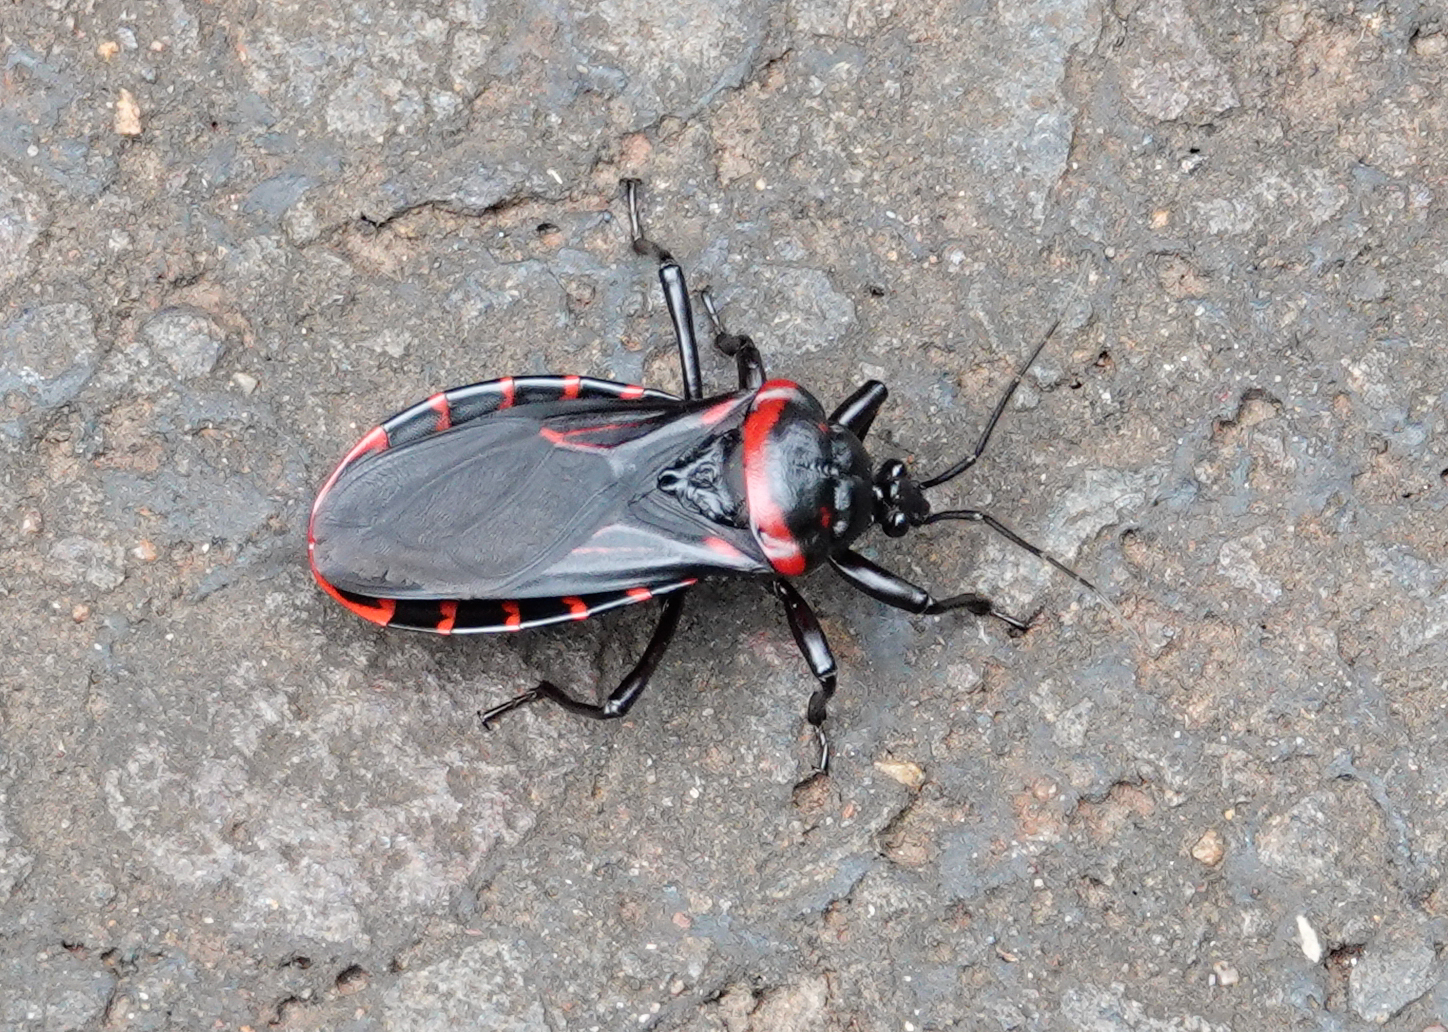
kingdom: Animalia
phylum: Arthropoda
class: Insecta
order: Hemiptera
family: Reduviidae
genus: Brontostoma
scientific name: Brontostoma colossus
